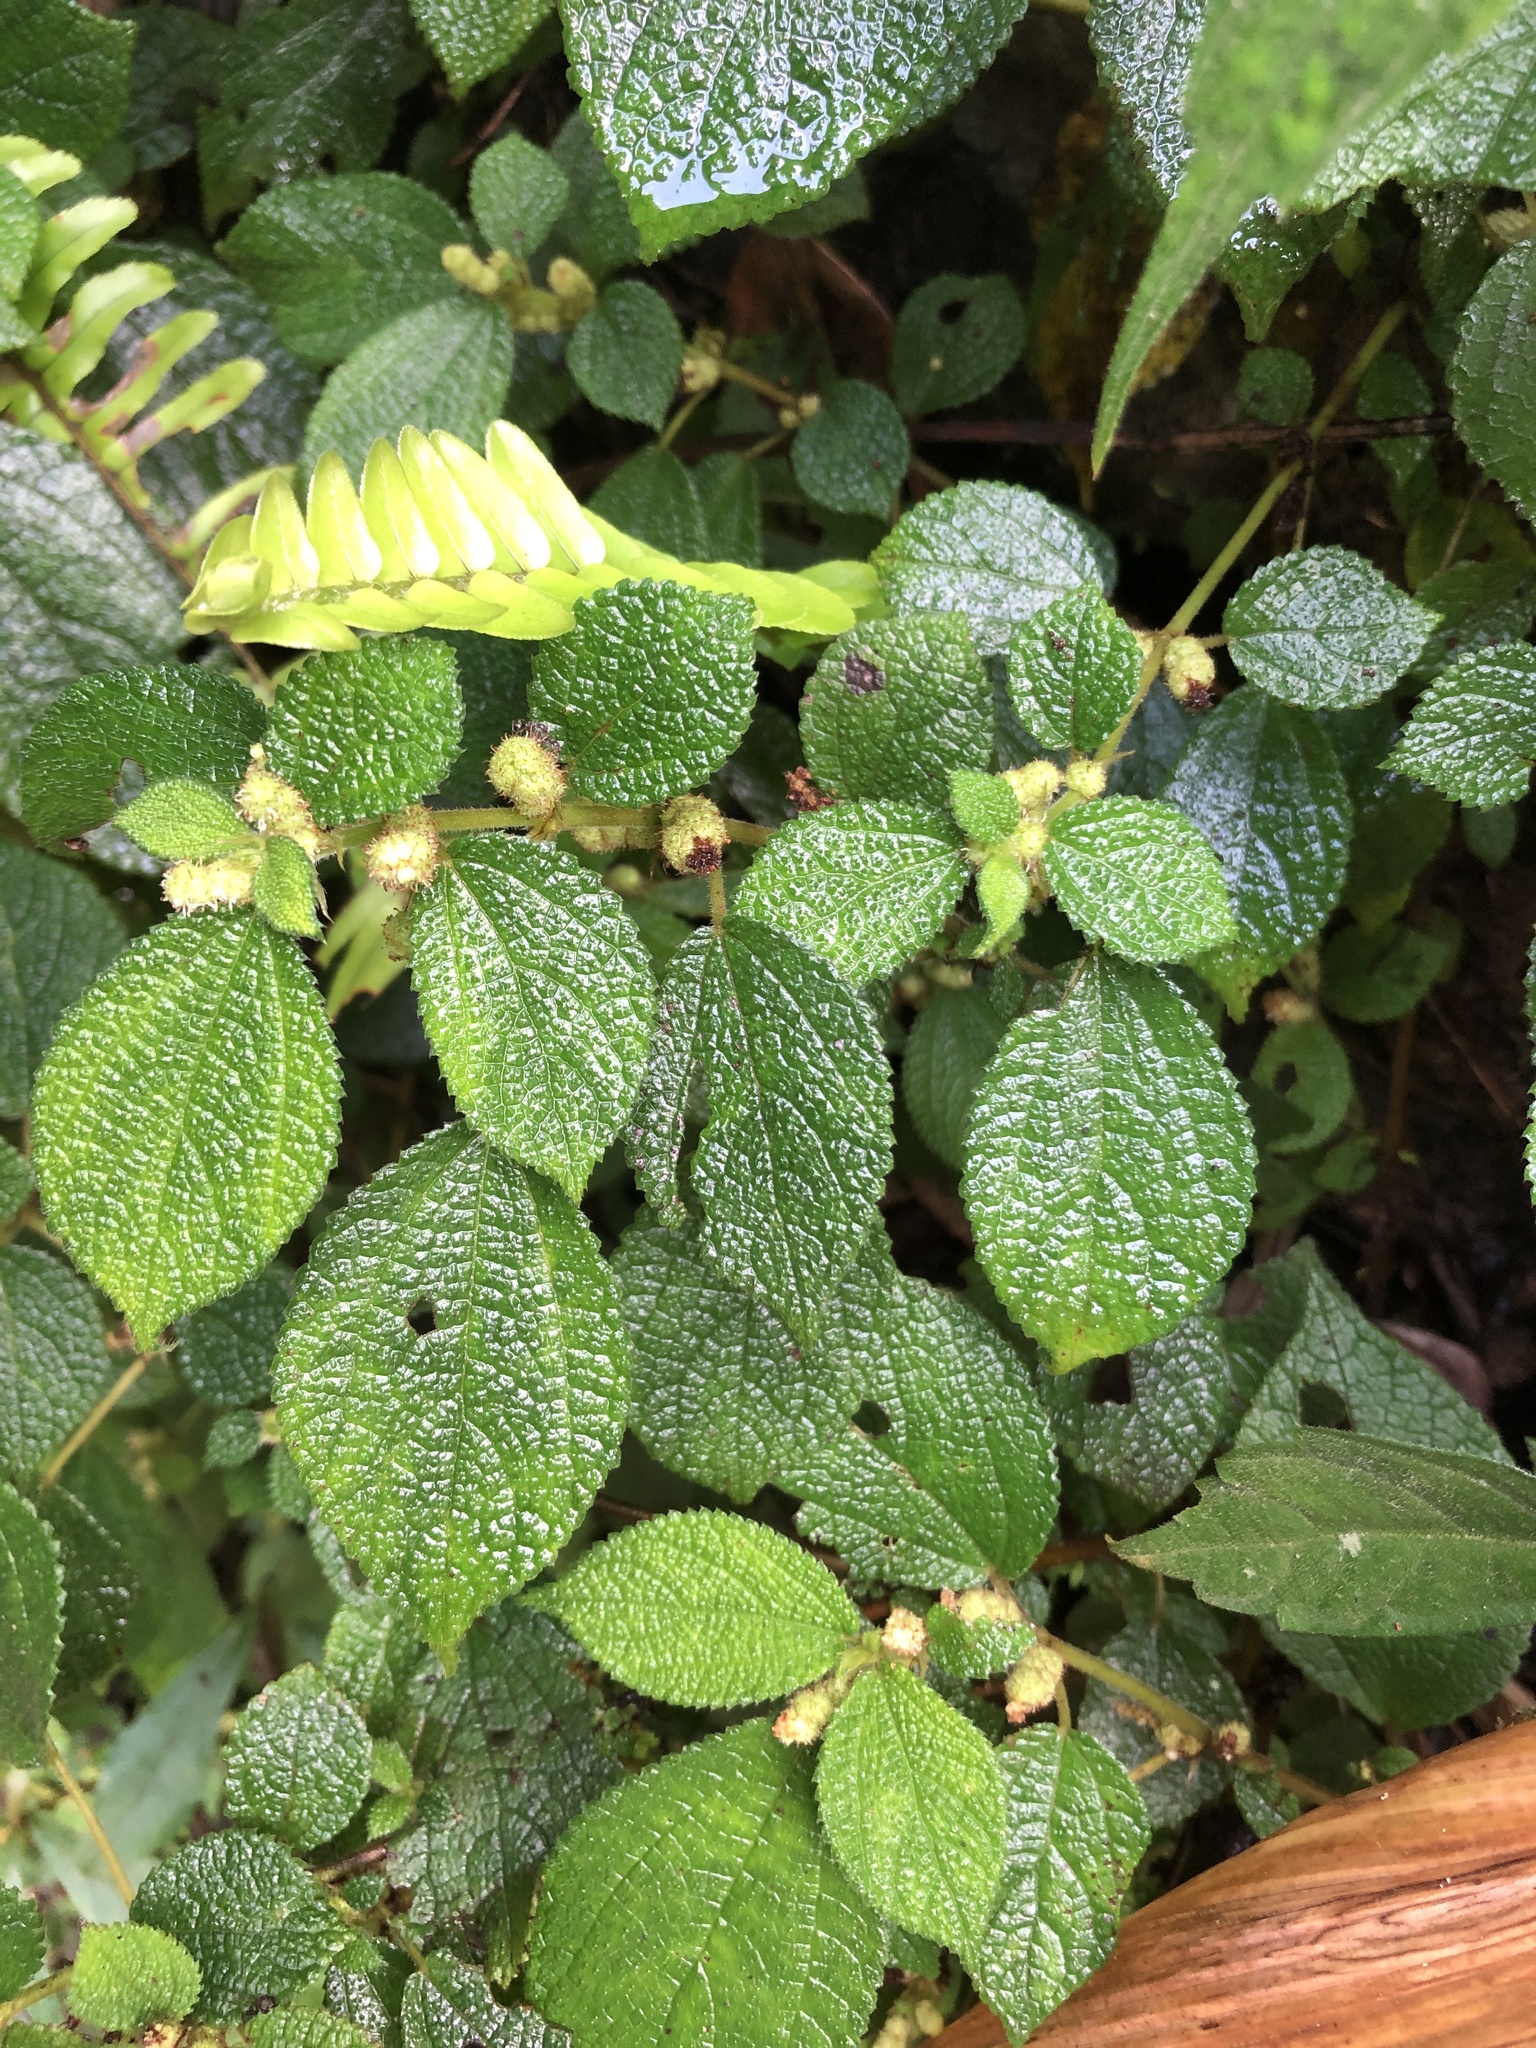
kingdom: Plantae
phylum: Tracheophyta
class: Magnoliopsida
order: Rosales
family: Urticaceae
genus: Boehmeria
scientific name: Boehmeria pilosiuscula
